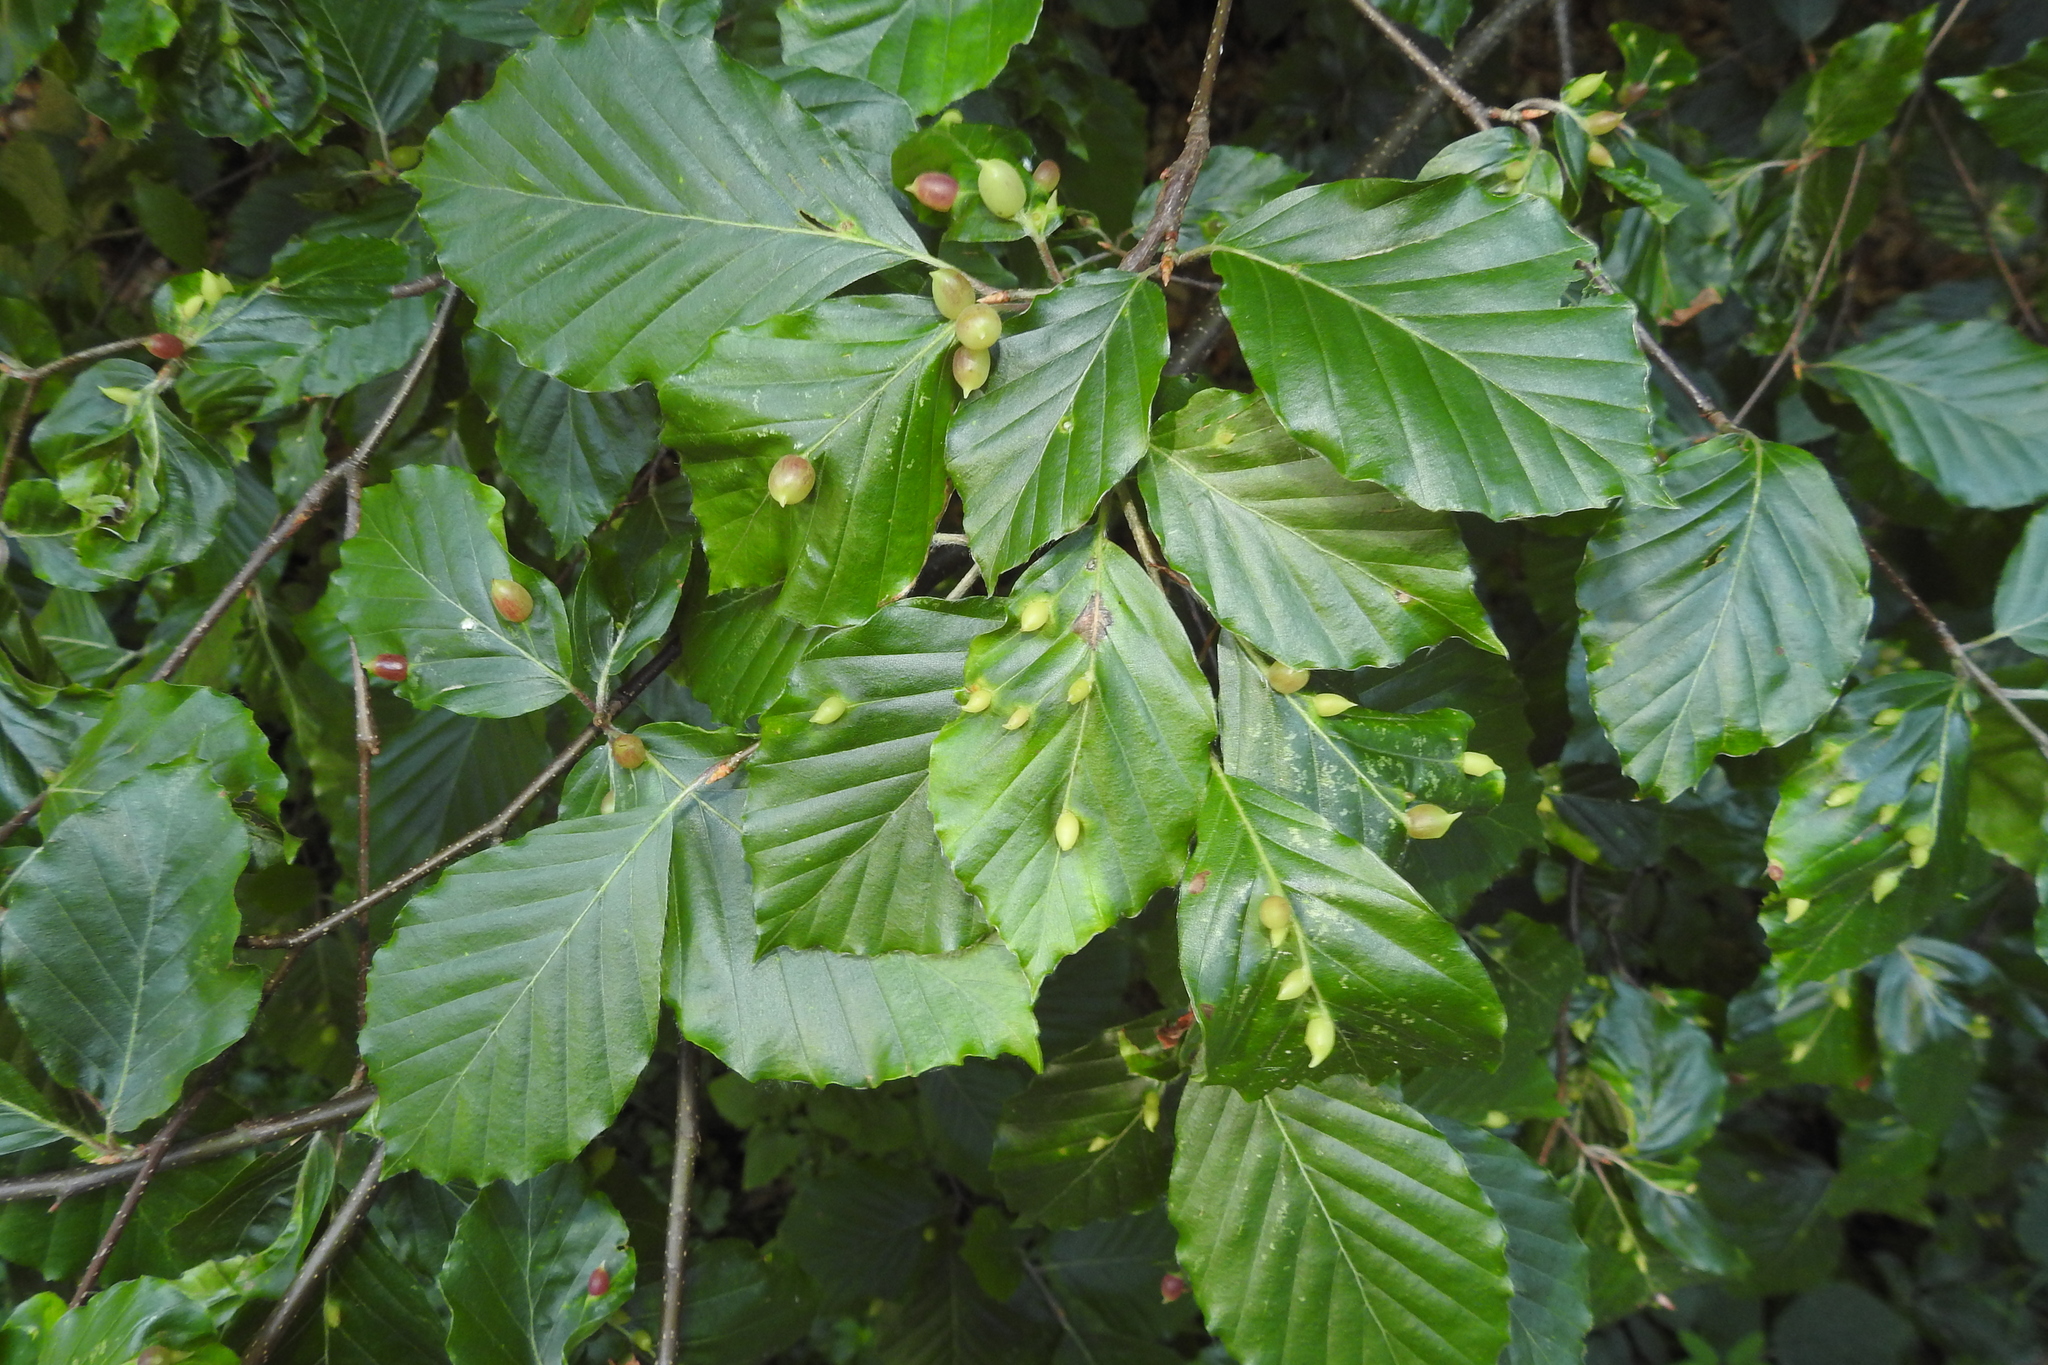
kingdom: Animalia
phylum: Arthropoda
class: Insecta
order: Diptera
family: Cecidomyiidae
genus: Mikiola
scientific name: Mikiola fagi
